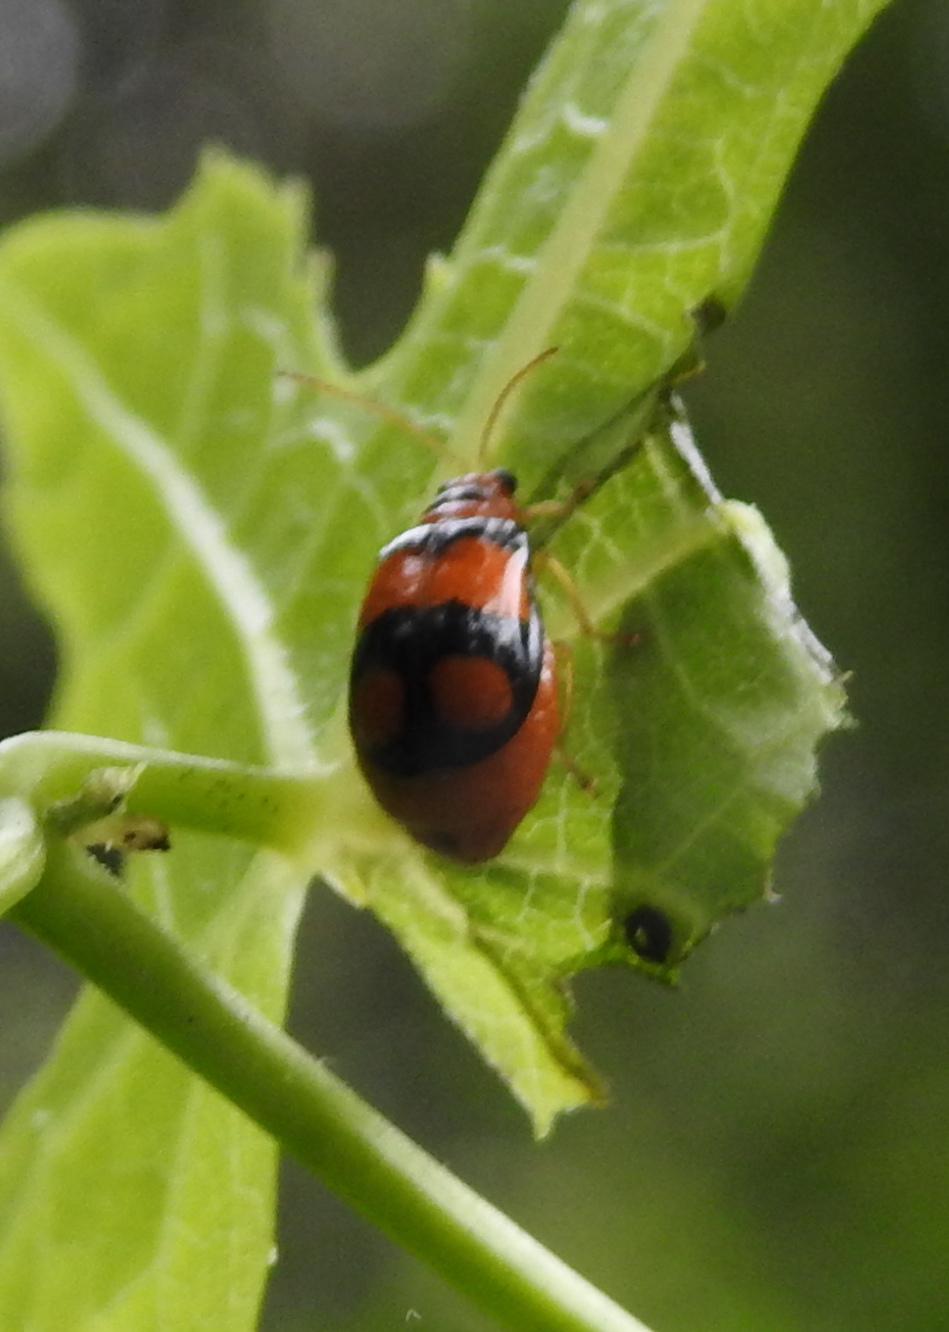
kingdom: Animalia
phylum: Arthropoda
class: Insecta
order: Coleoptera
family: Chrysomelidae
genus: Diacantha
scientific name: Diacantha
